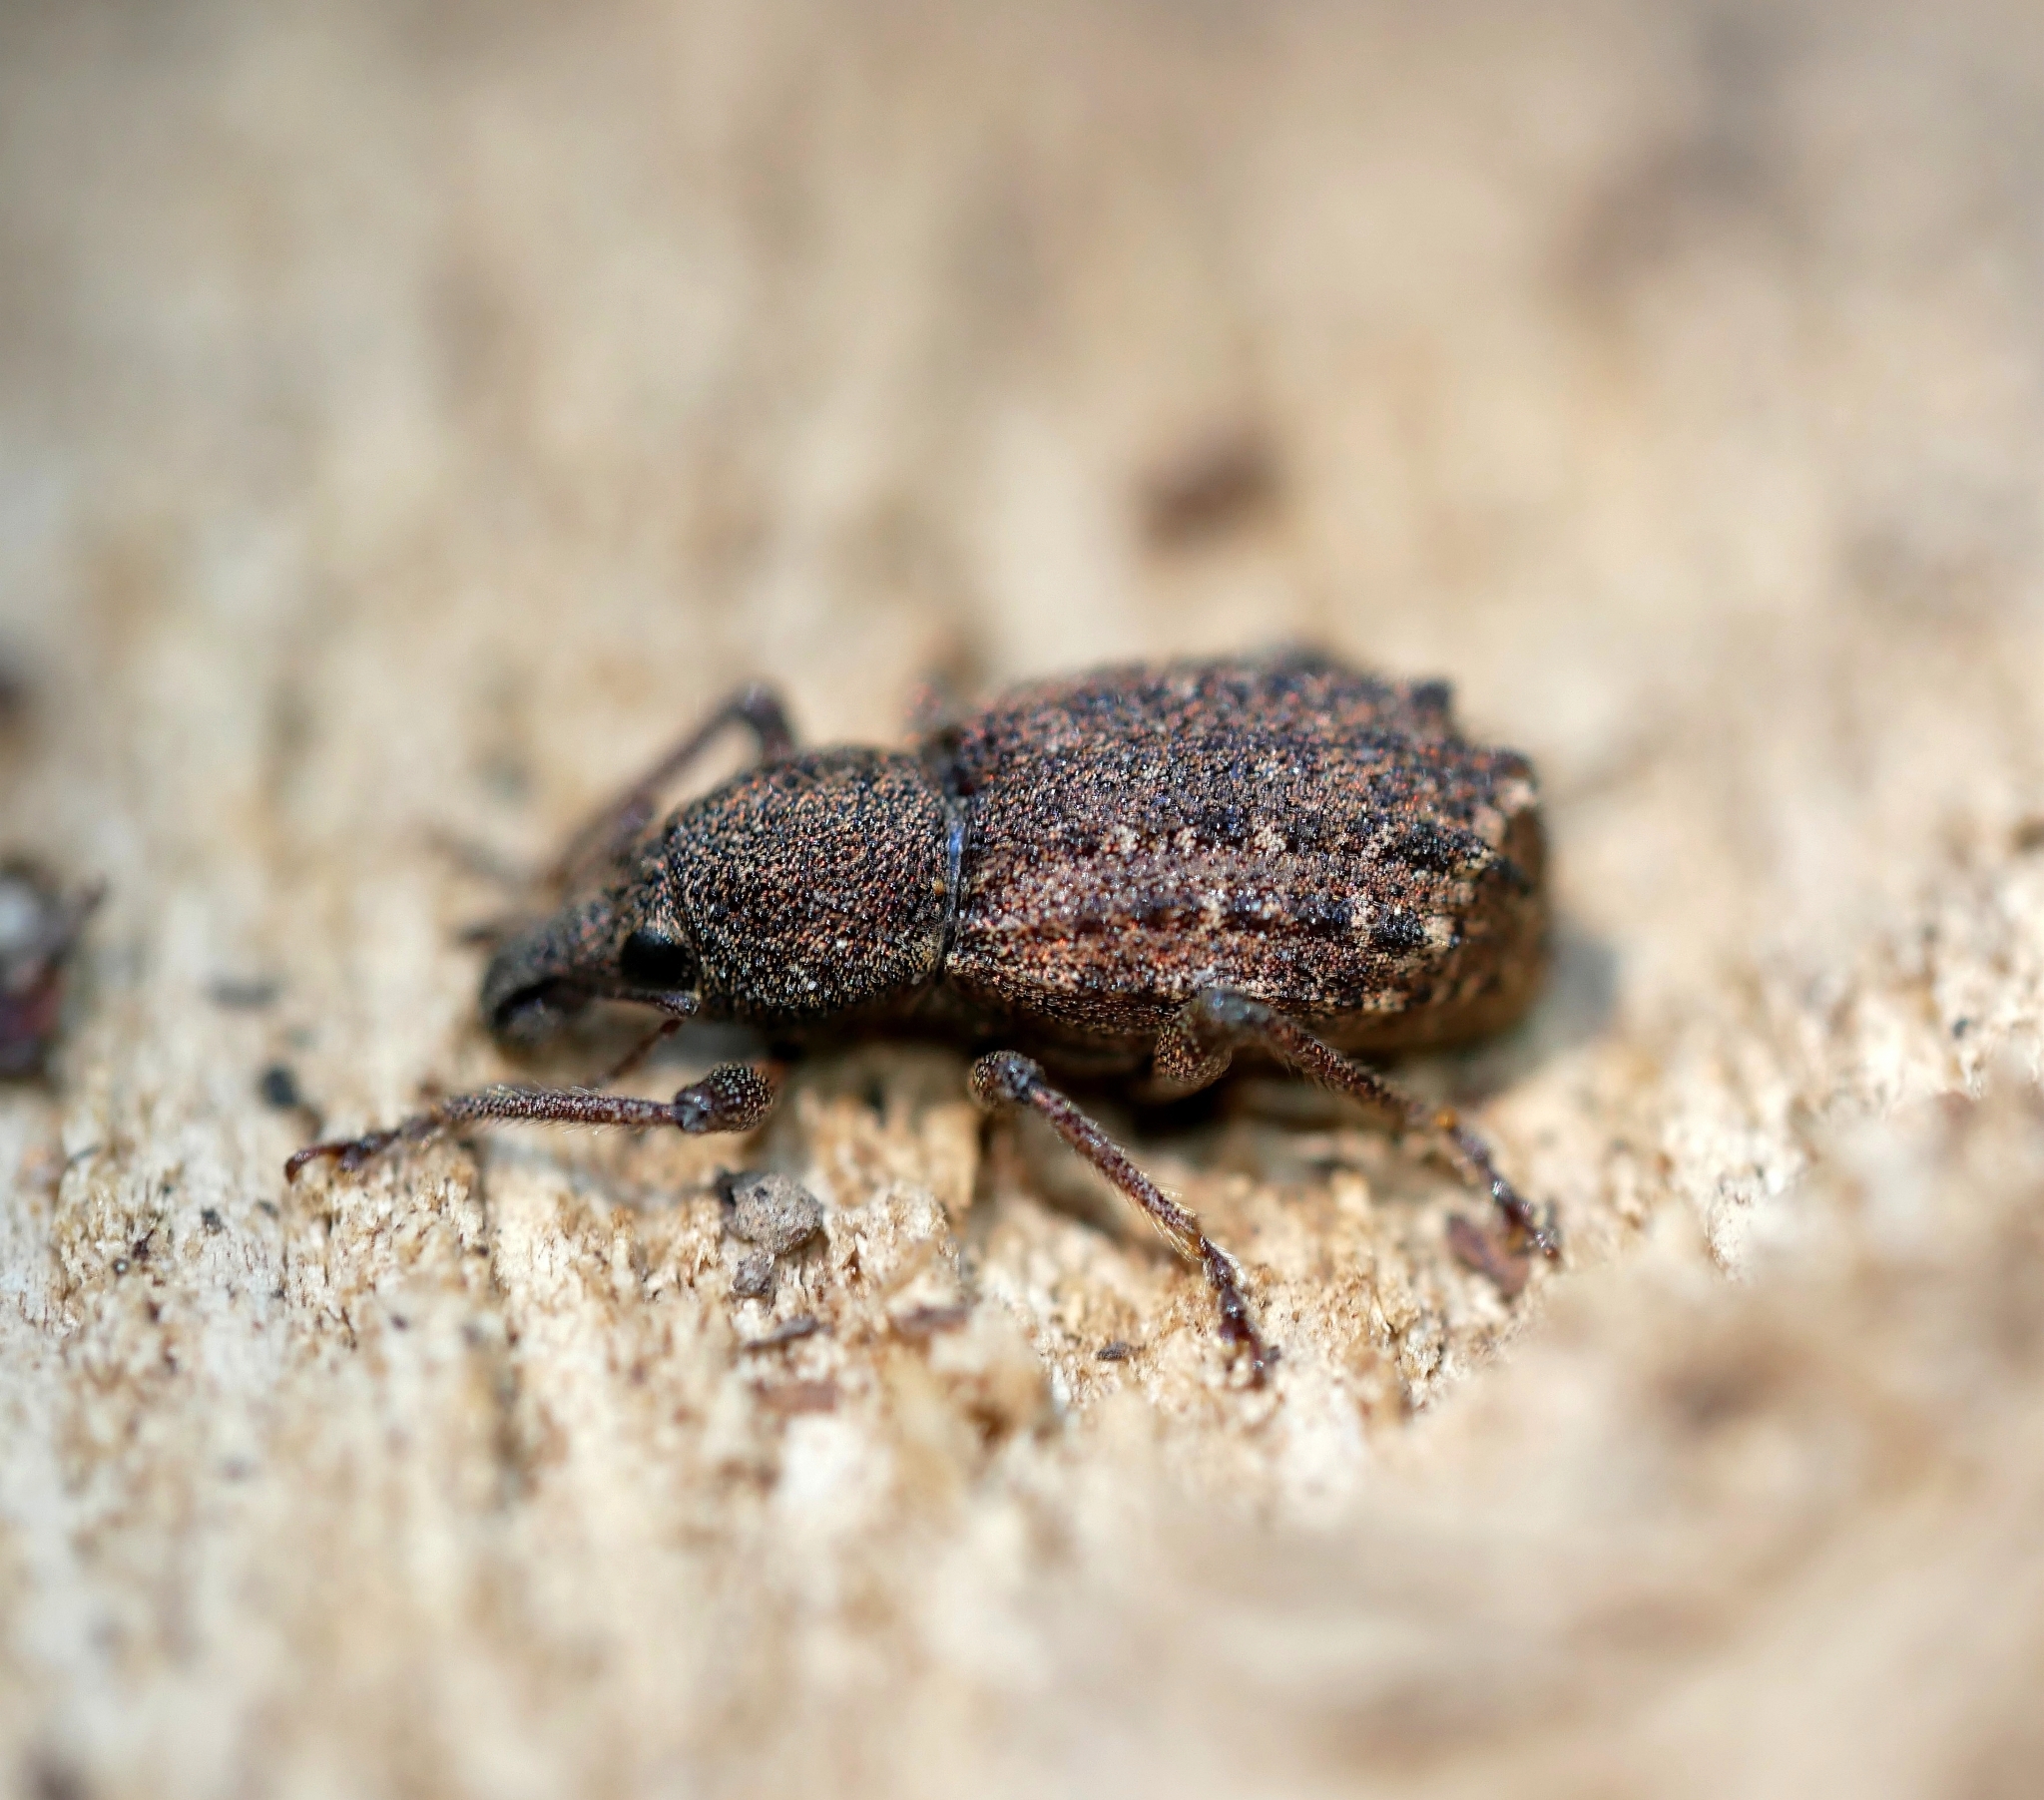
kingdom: Animalia
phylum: Arthropoda
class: Insecta
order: Coleoptera
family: Curculionidae
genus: Dyslobus
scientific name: Dyslobus granicollis
